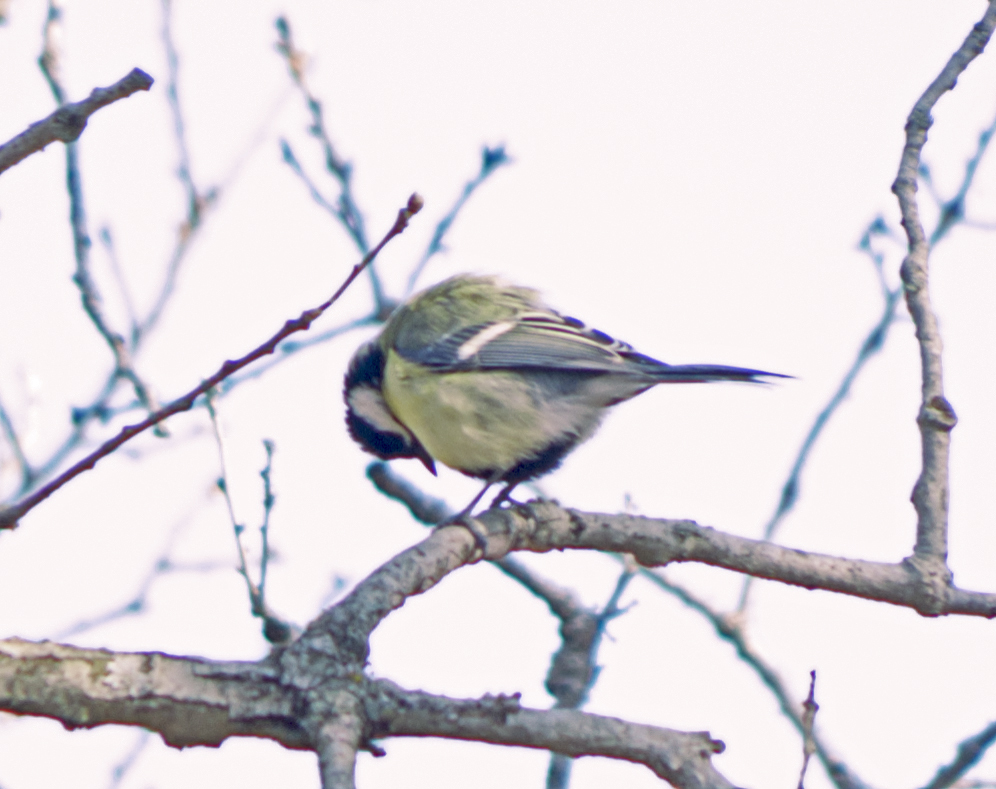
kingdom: Animalia
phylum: Chordata
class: Aves
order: Passeriformes
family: Paridae
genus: Parus
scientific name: Parus major
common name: Great tit
